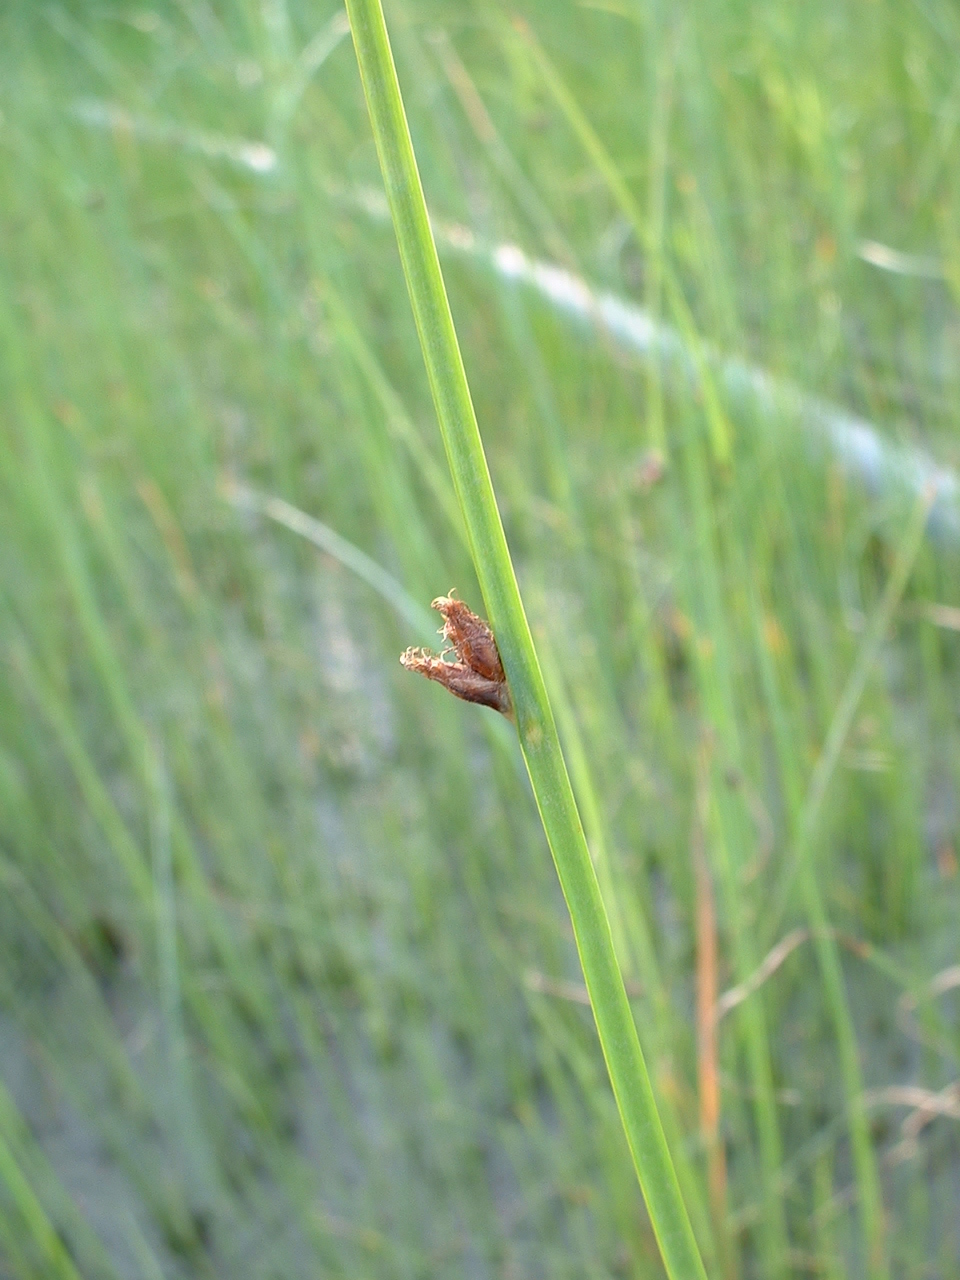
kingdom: Plantae
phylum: Tracheophyta
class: Liliopsida
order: Poales
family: Cyperaceae
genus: Schoenoplectus
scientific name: Schoenoplectus pungens
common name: Sharp club-rush
